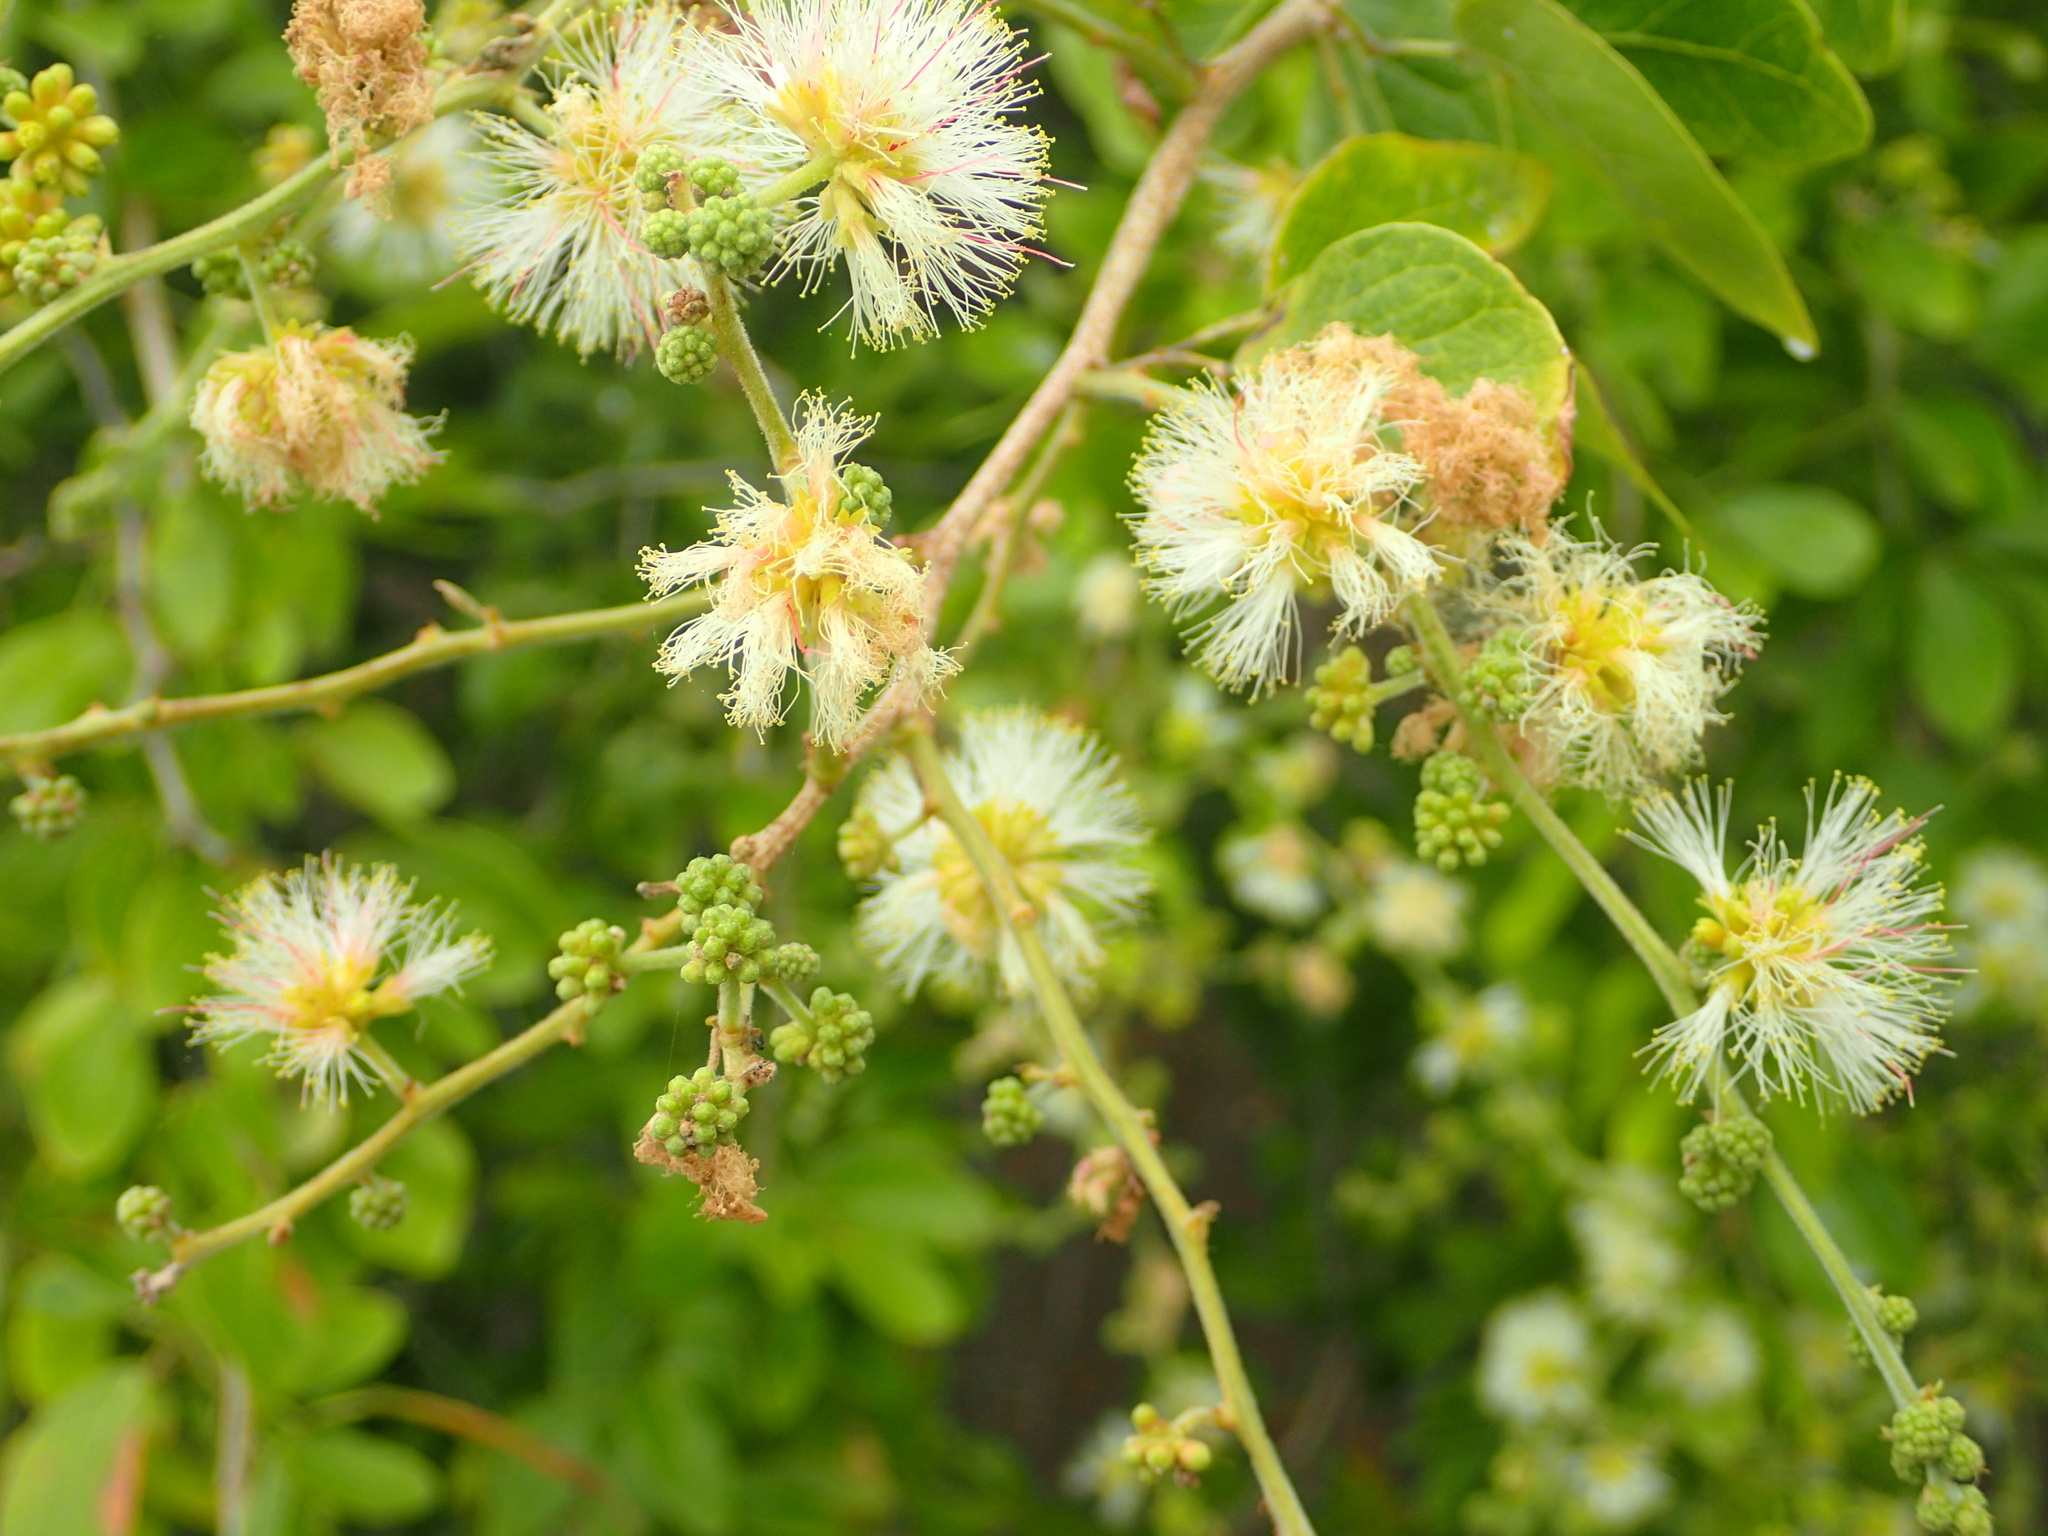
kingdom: Plantae
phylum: Tracheophyta
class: Magnoliopsida
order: Fabales
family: Fabaceae
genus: Pithecellobium
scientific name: Pithecellobium dulce
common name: Monkeypod
